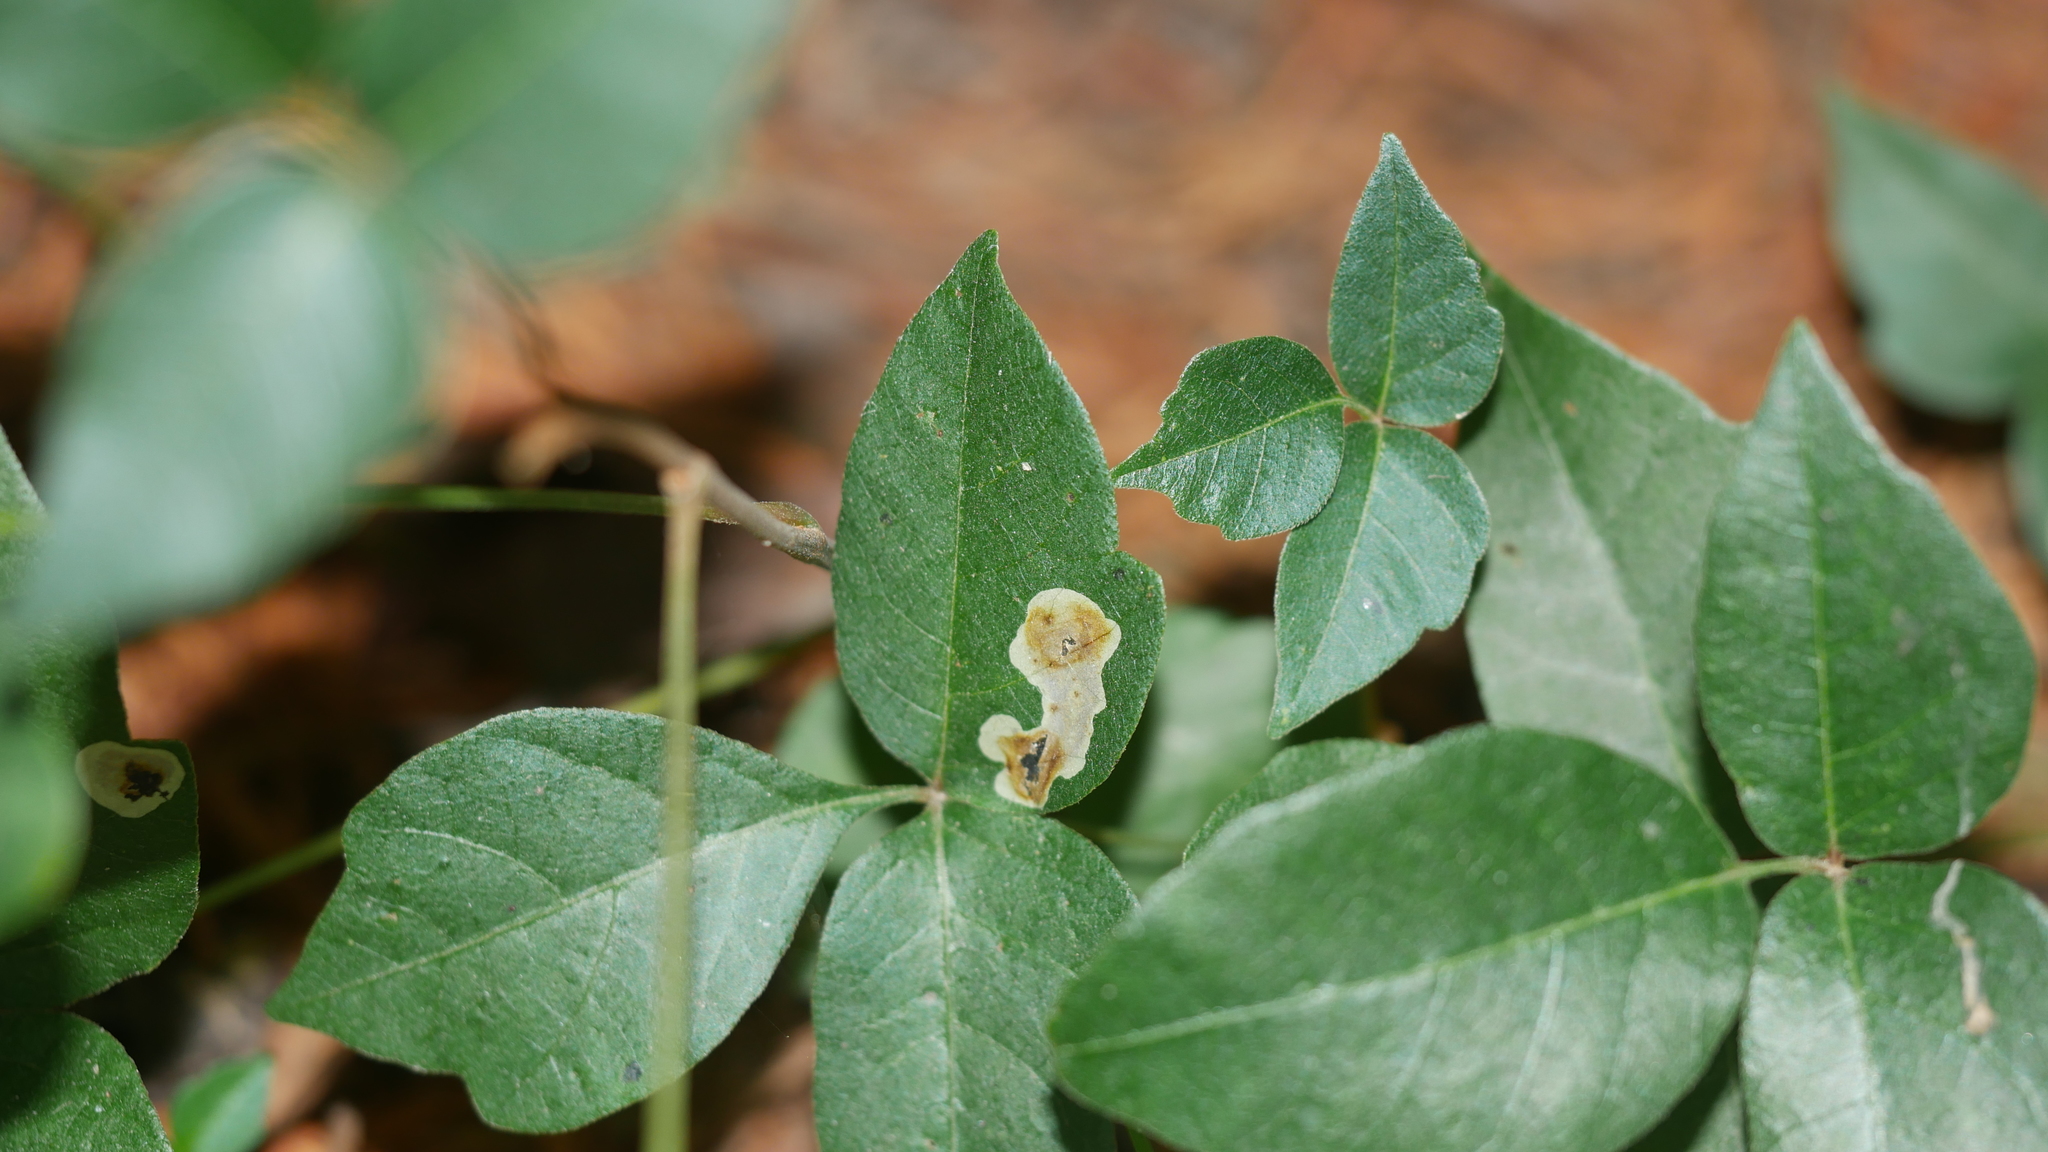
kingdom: Animalia
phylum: Arthropoda
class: Insecta
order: Lepidoptera
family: Gracillariidae
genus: Cameraria
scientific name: Cameraria guttifinitella
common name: Poison ivy leaf-miner moth
